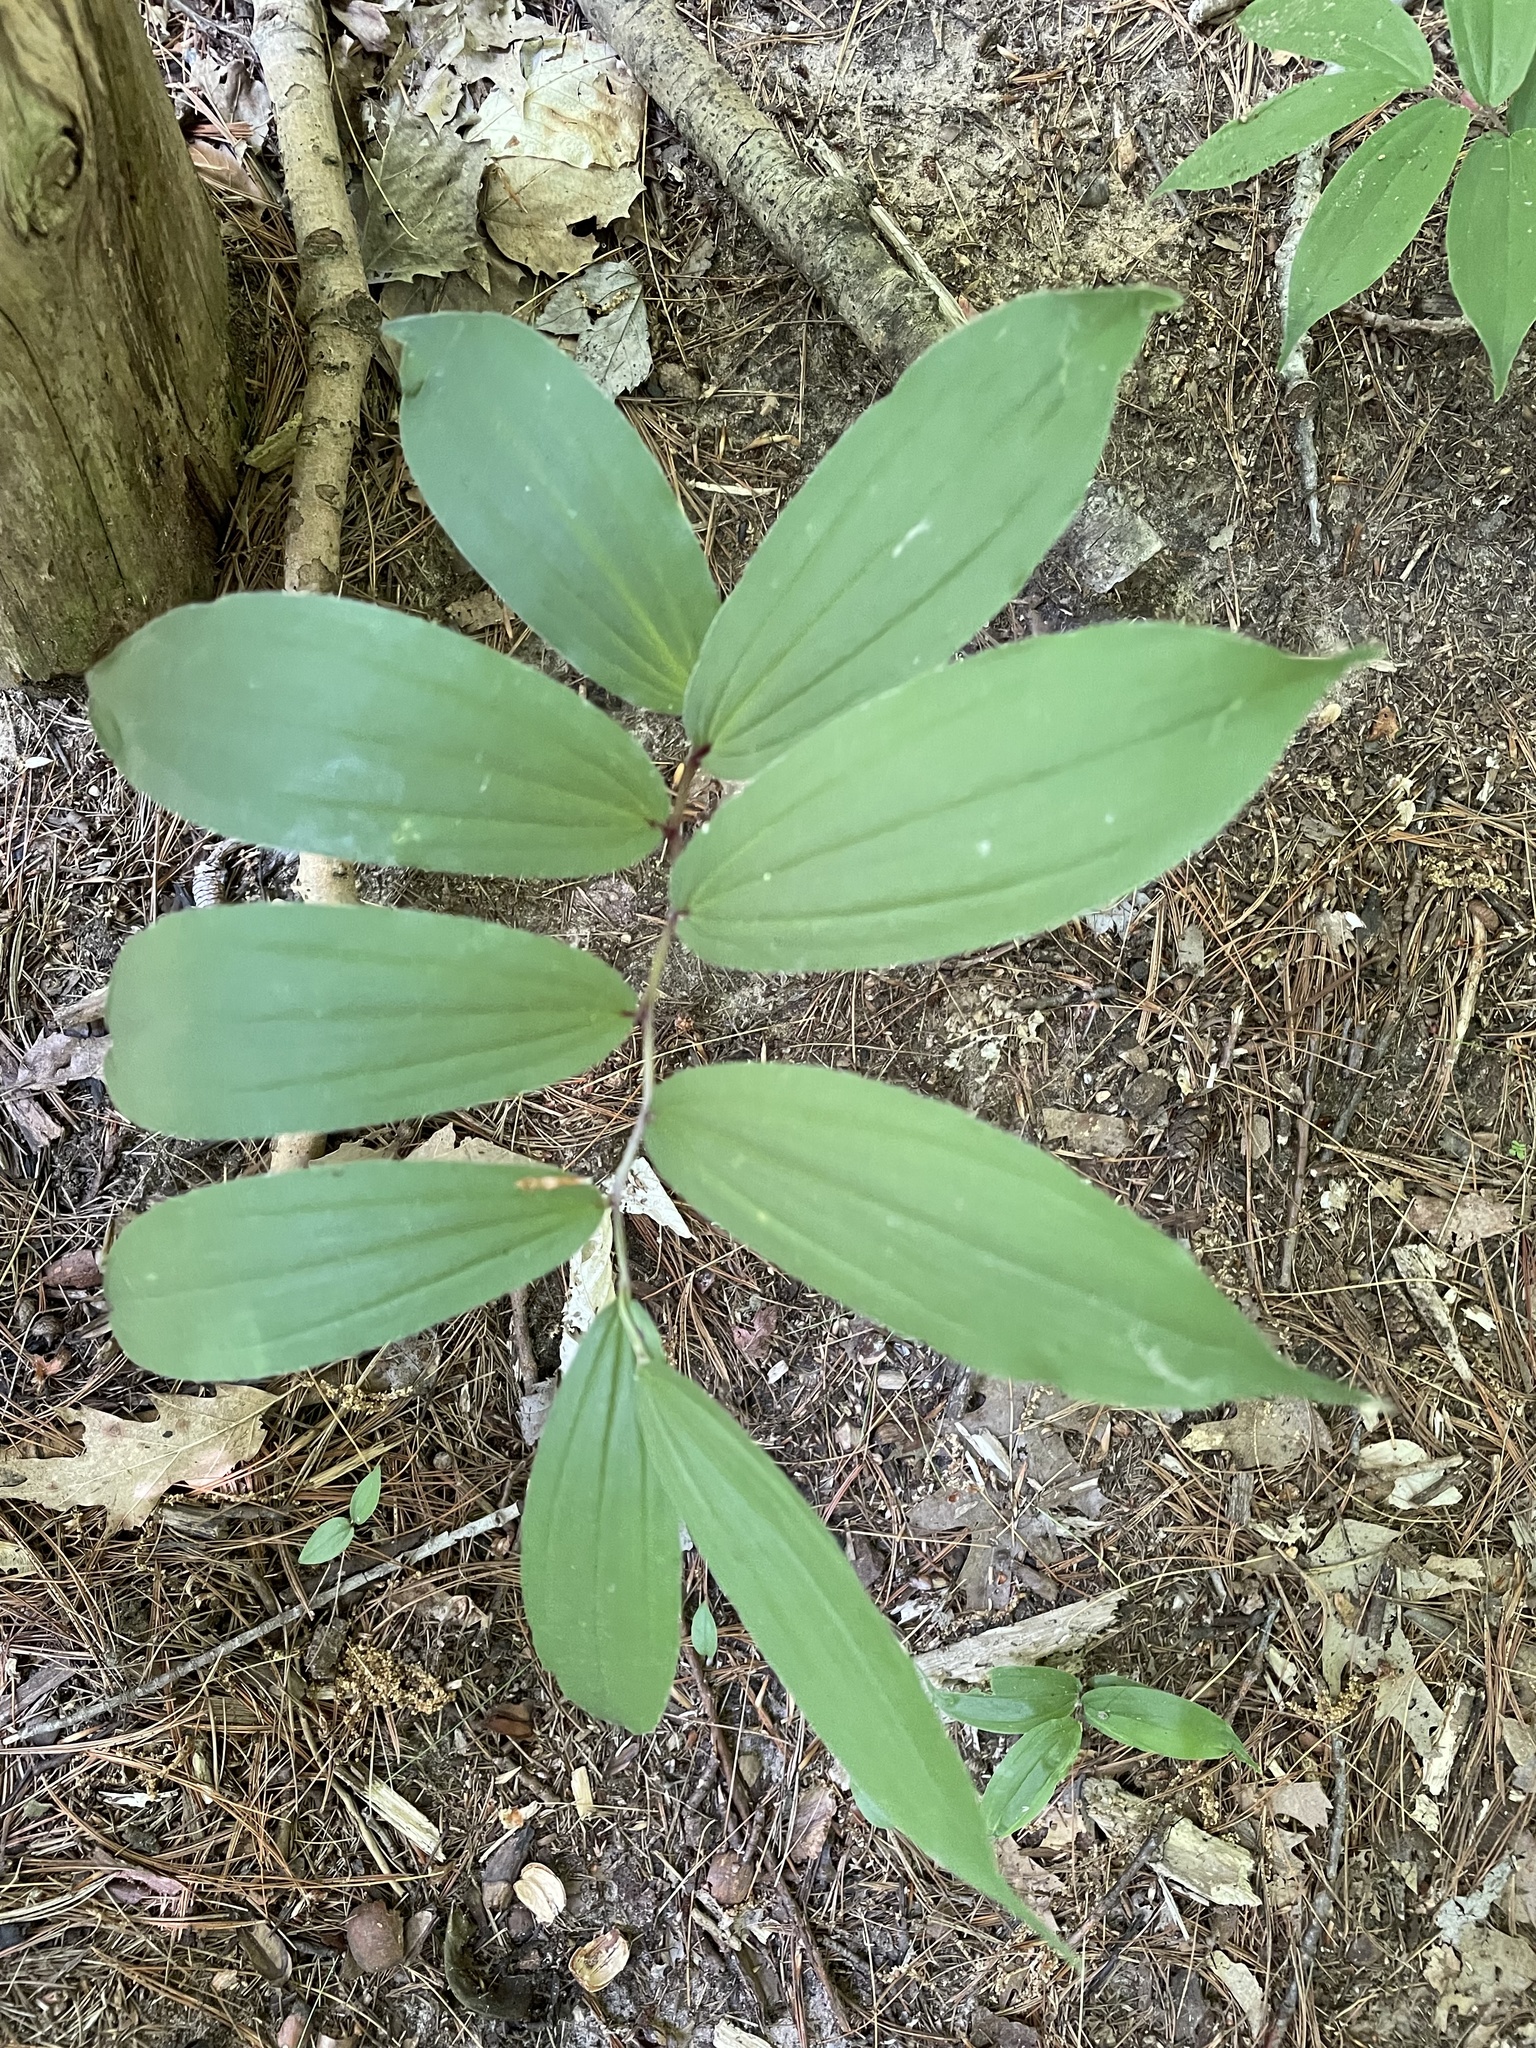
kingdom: Plantae
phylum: Tracheophyta
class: Liliopsida
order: Asparagales
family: Asparagaceae
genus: Maianthemum
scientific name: Maianthemum racemosum
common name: False spikenard
